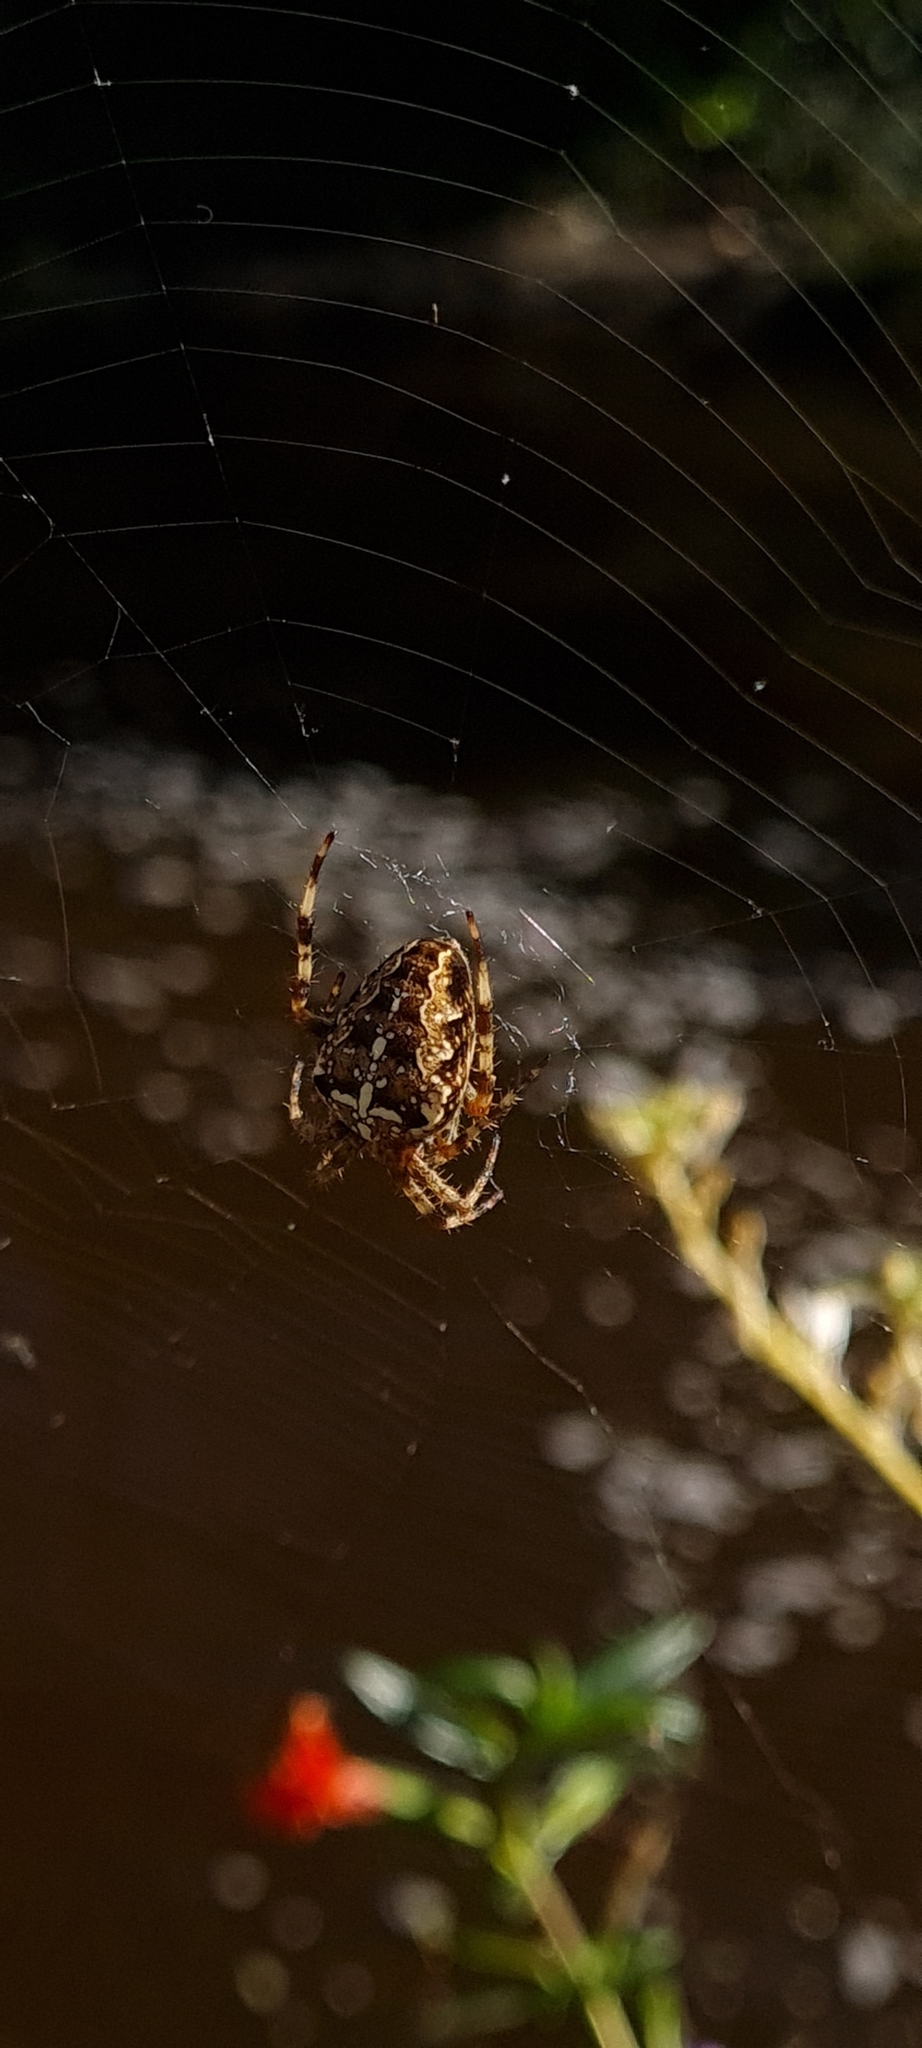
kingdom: Animalia
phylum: Arthropoda
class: Arachnida
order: Araneae
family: Araneidae
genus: Araneus
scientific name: Araneus diadematus
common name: Cross orbweaver
